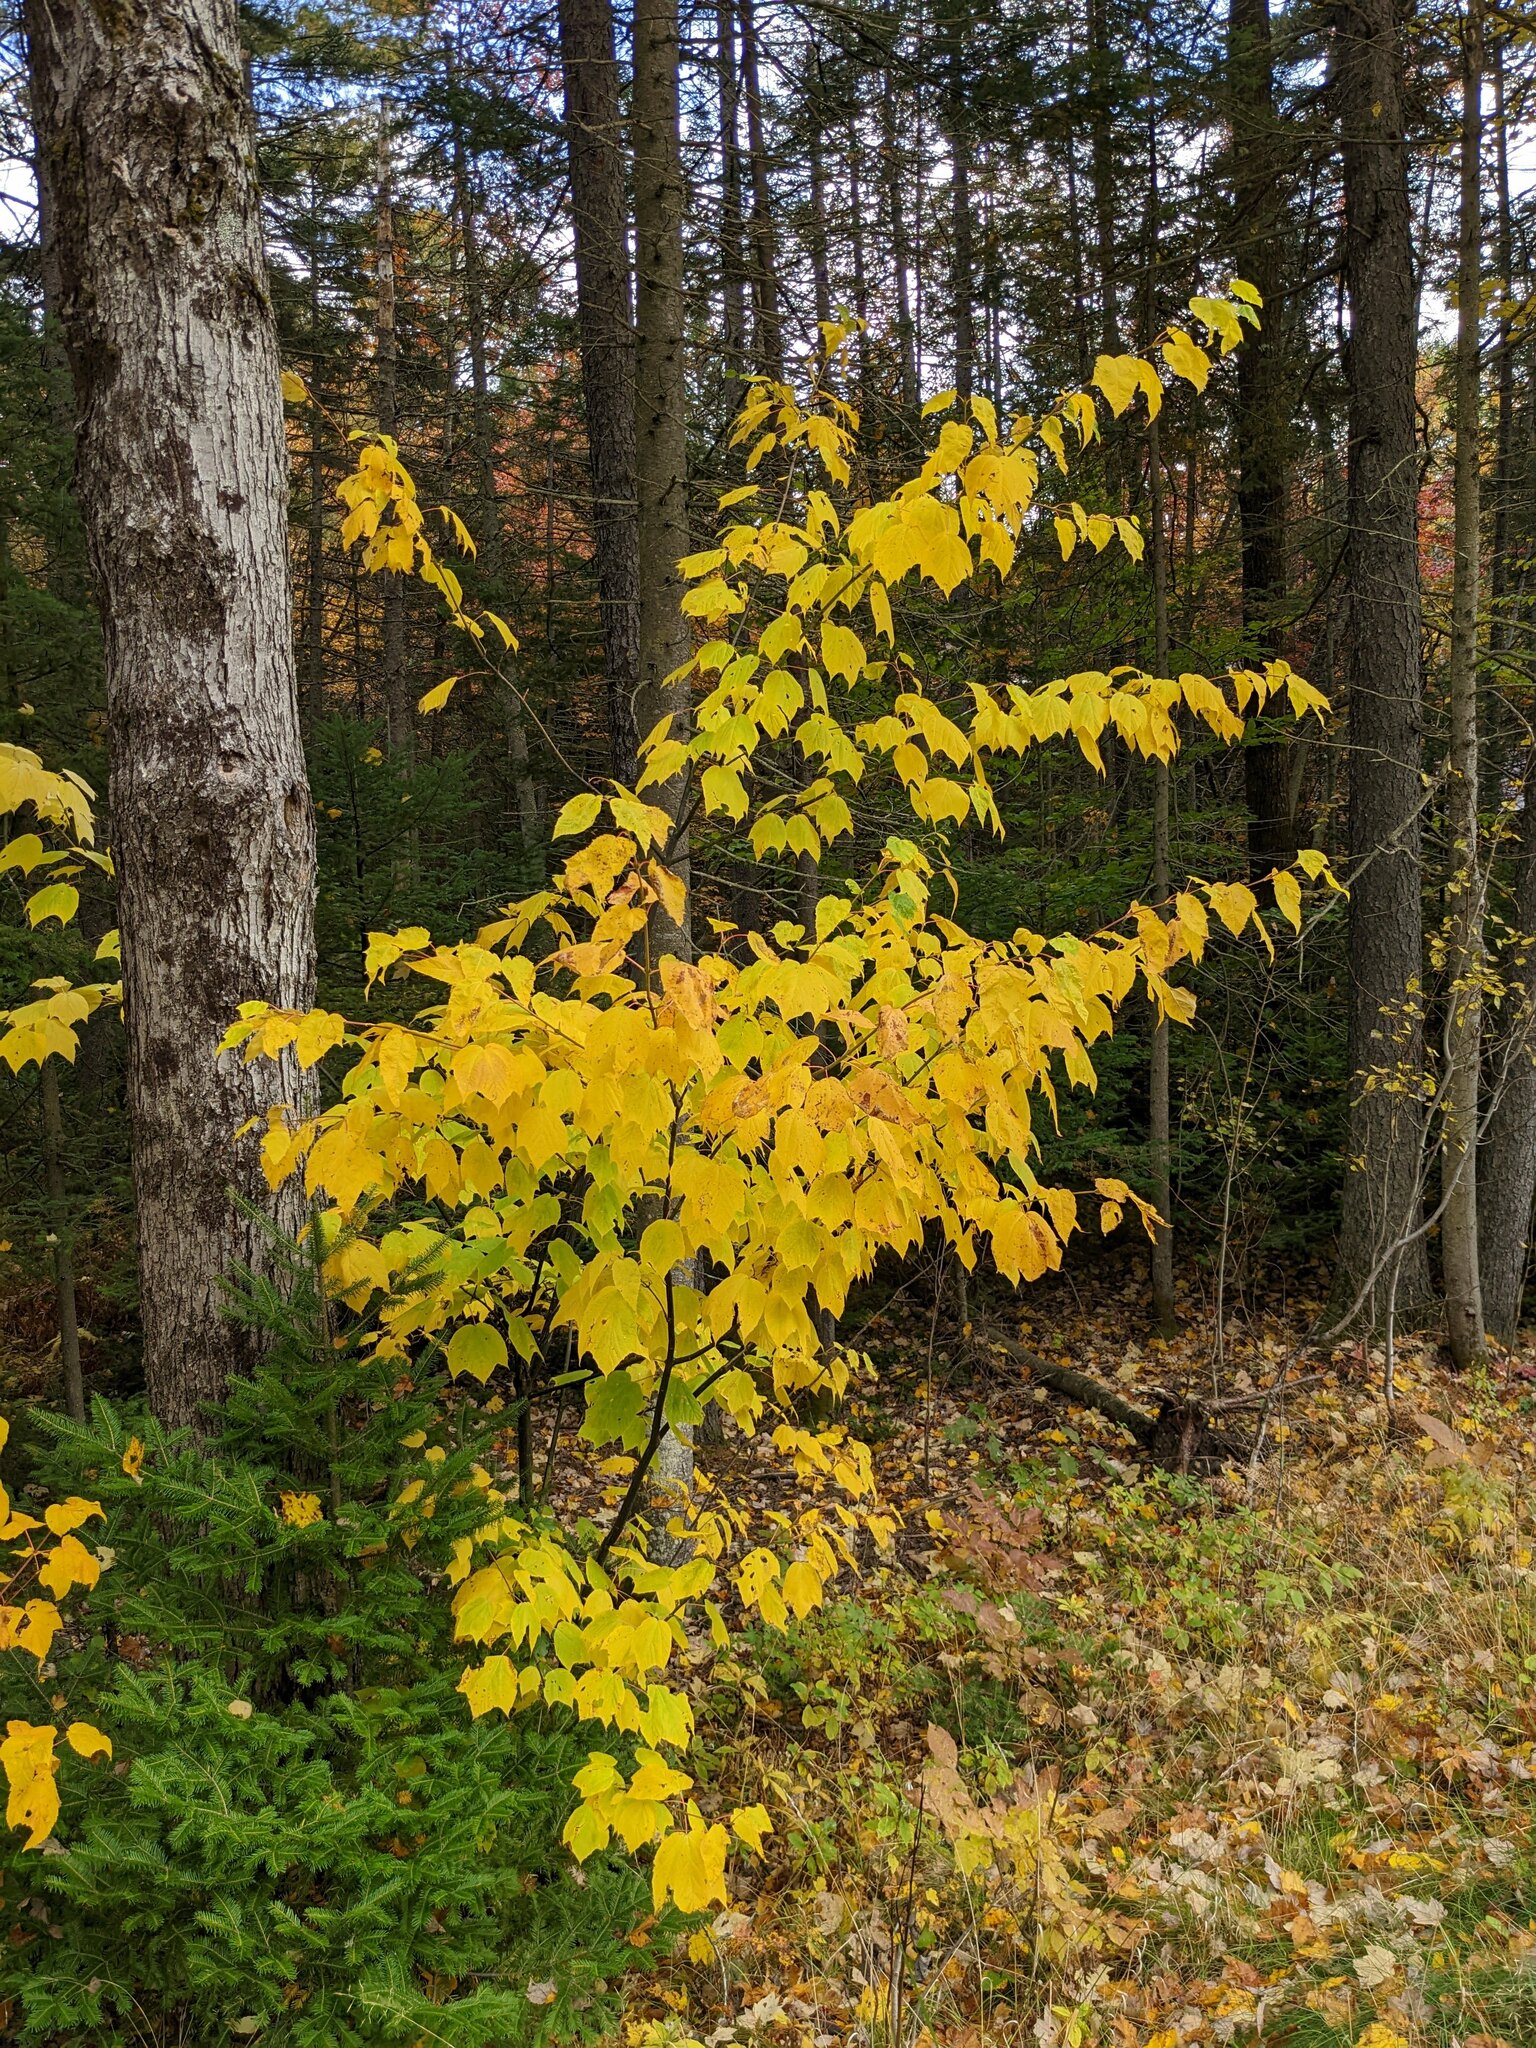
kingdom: Plantae
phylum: Tracheophyta
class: Magnoliopsida
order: Sapindales
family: Sapindaceae
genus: Acer
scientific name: Acer pensylvanicum
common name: Moosewood
